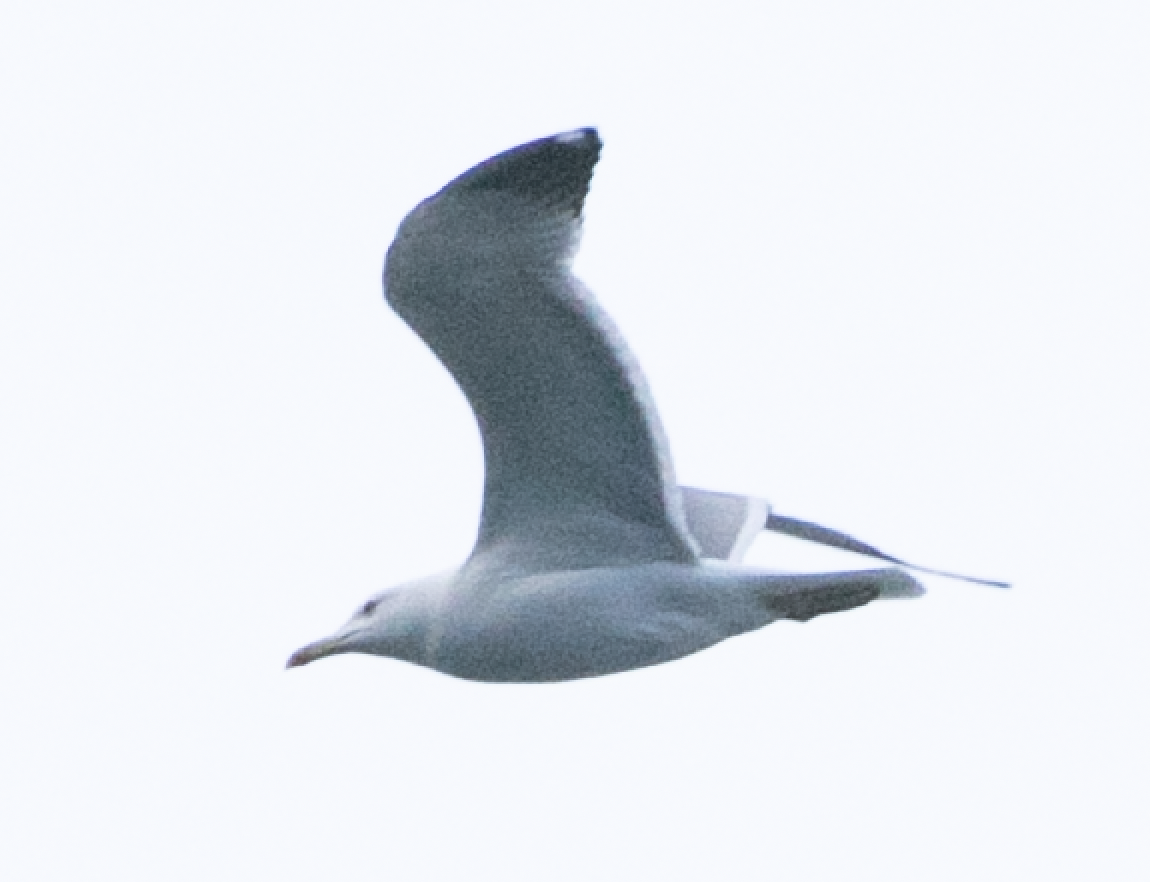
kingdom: Animalia
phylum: Chordata
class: Aves
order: Charadriiformes
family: Laridae
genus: Larus
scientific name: Larus michahellis
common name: Yellow-legged gull
